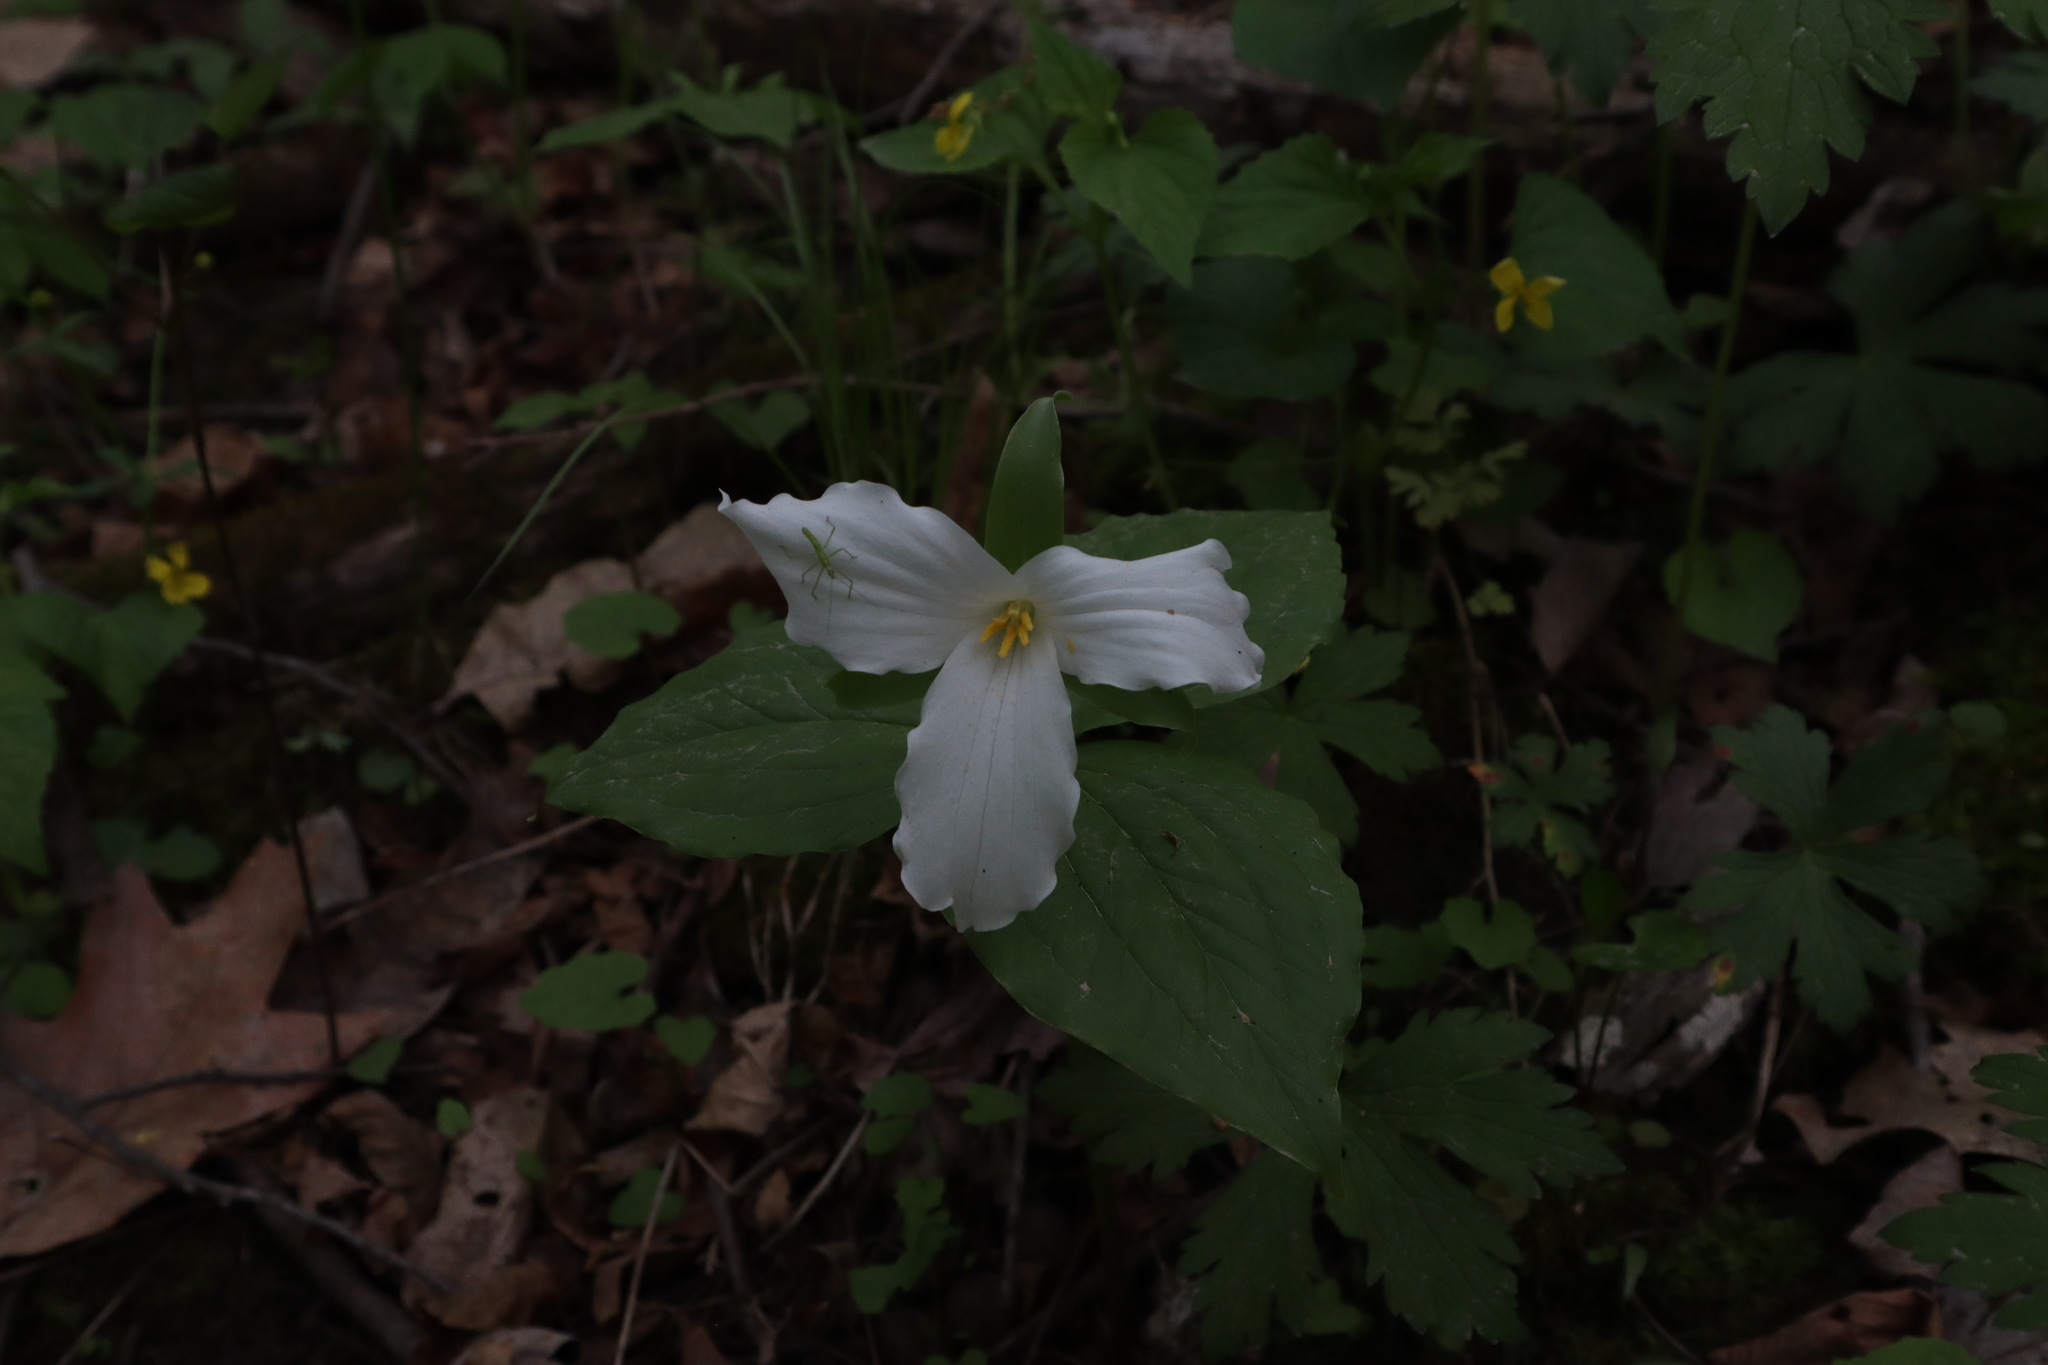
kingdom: Plantae
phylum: Tracheophyta
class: Liliopsida
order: Liliales
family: Melanthiaceae
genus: Trillium
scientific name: Trillium grandiflorum
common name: Great white trillium
